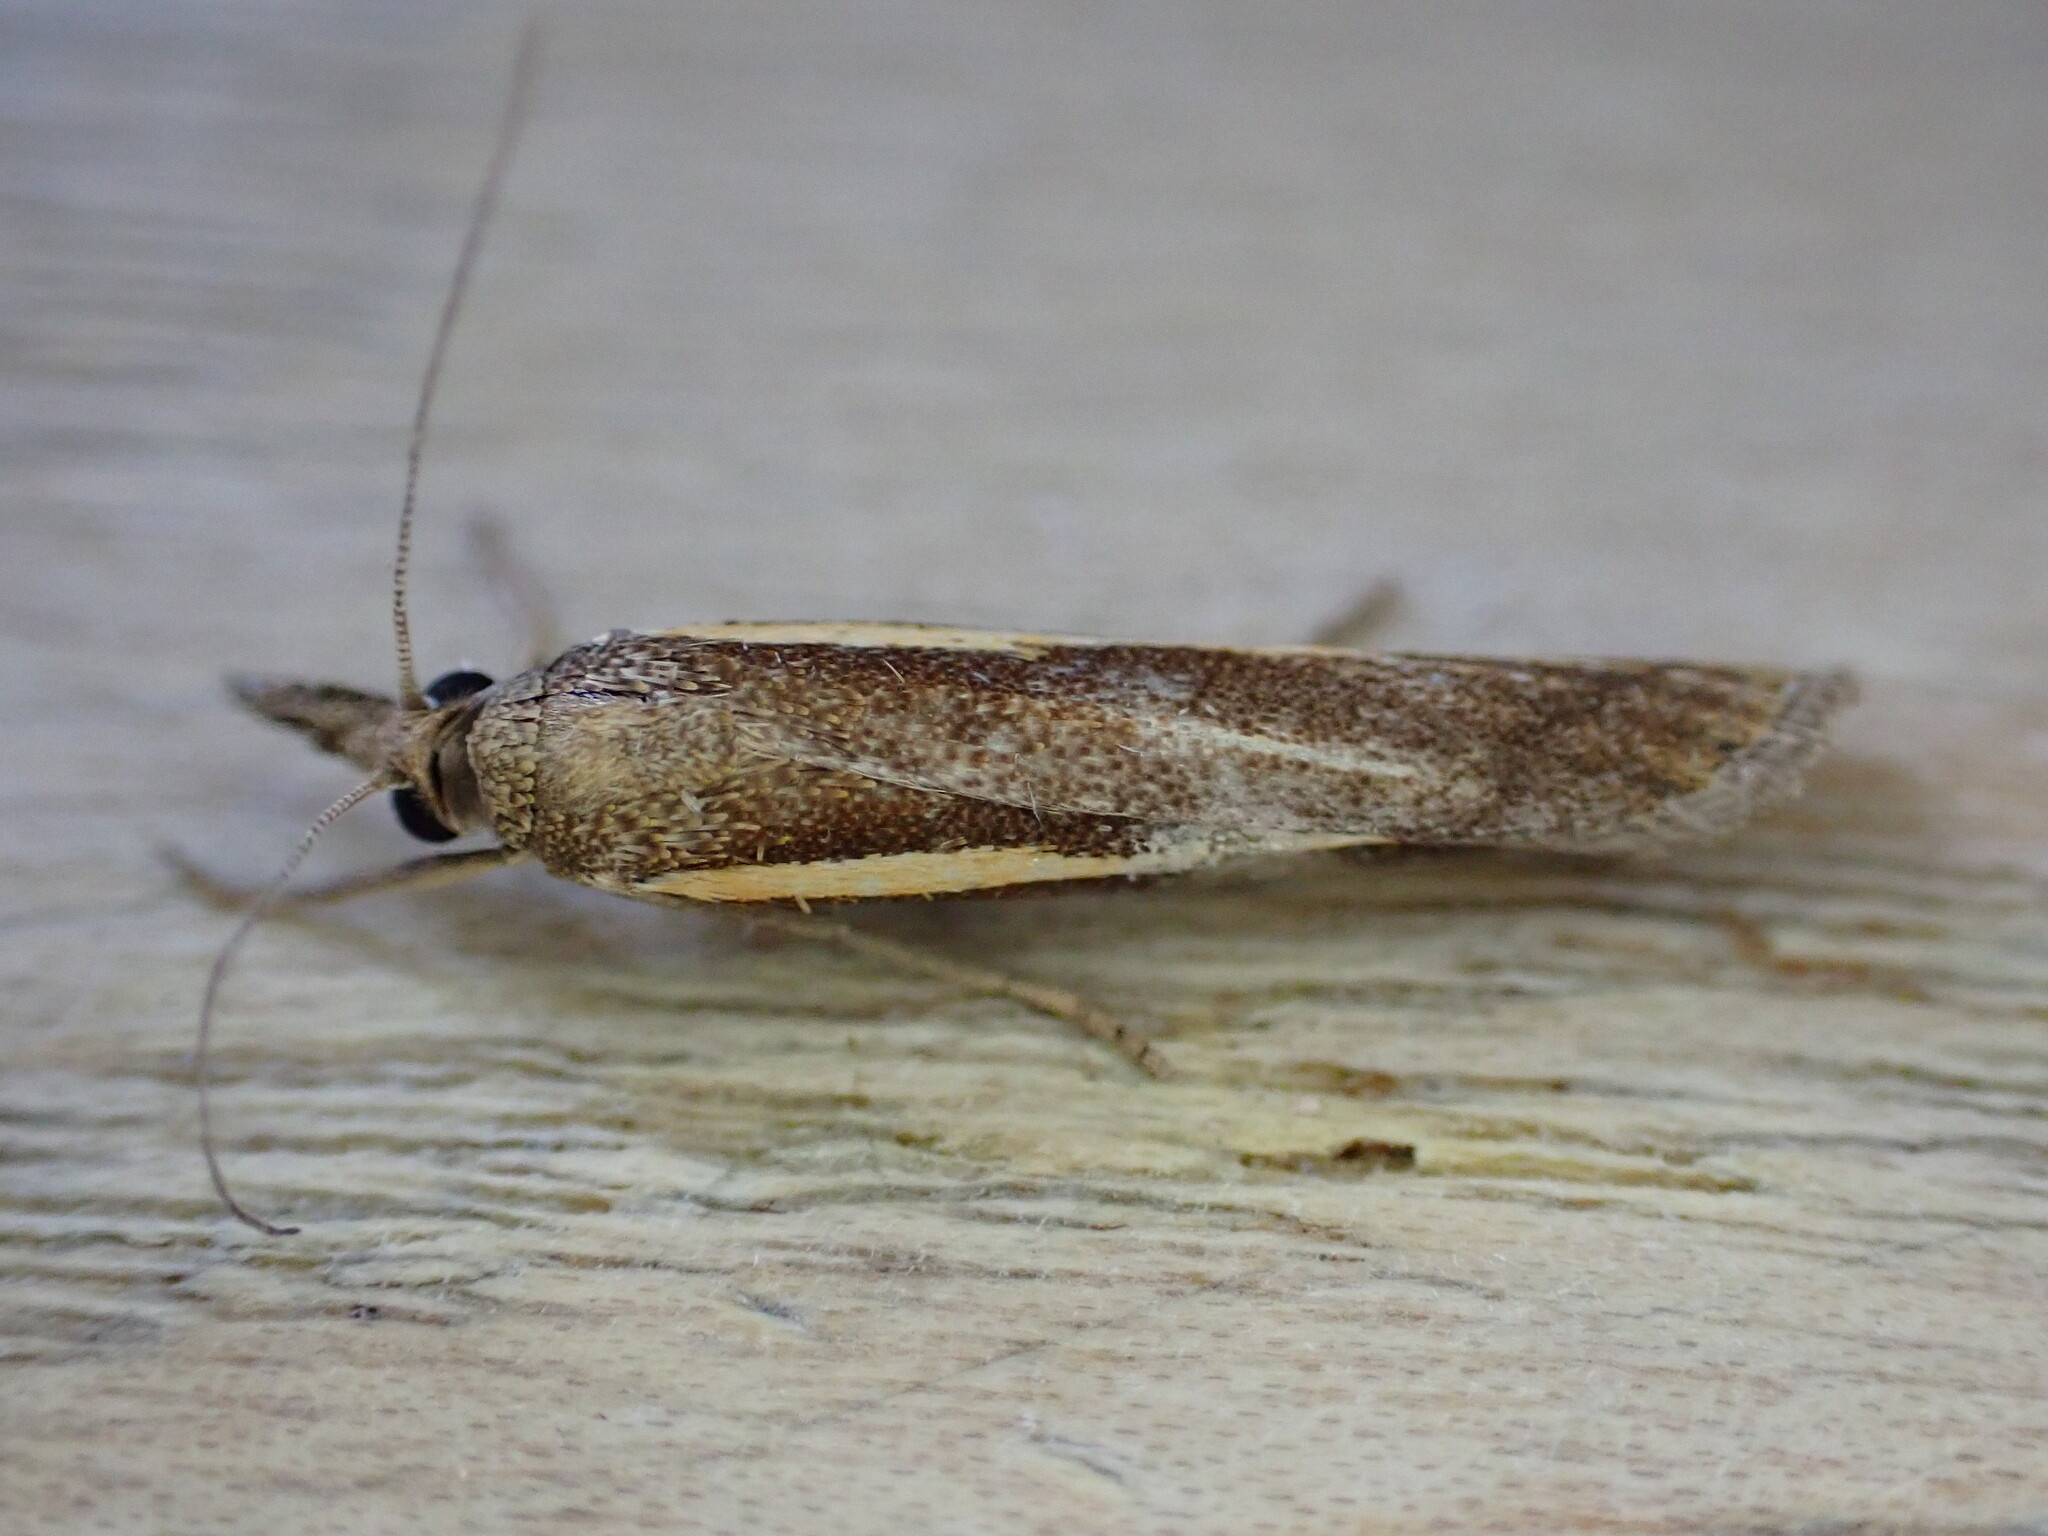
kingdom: Animalia
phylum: Arthropoda
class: Insecta
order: Lepidoptera
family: Crambidae
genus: Agriphila
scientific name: Agriphila tristellus
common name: Common grass-veneer
